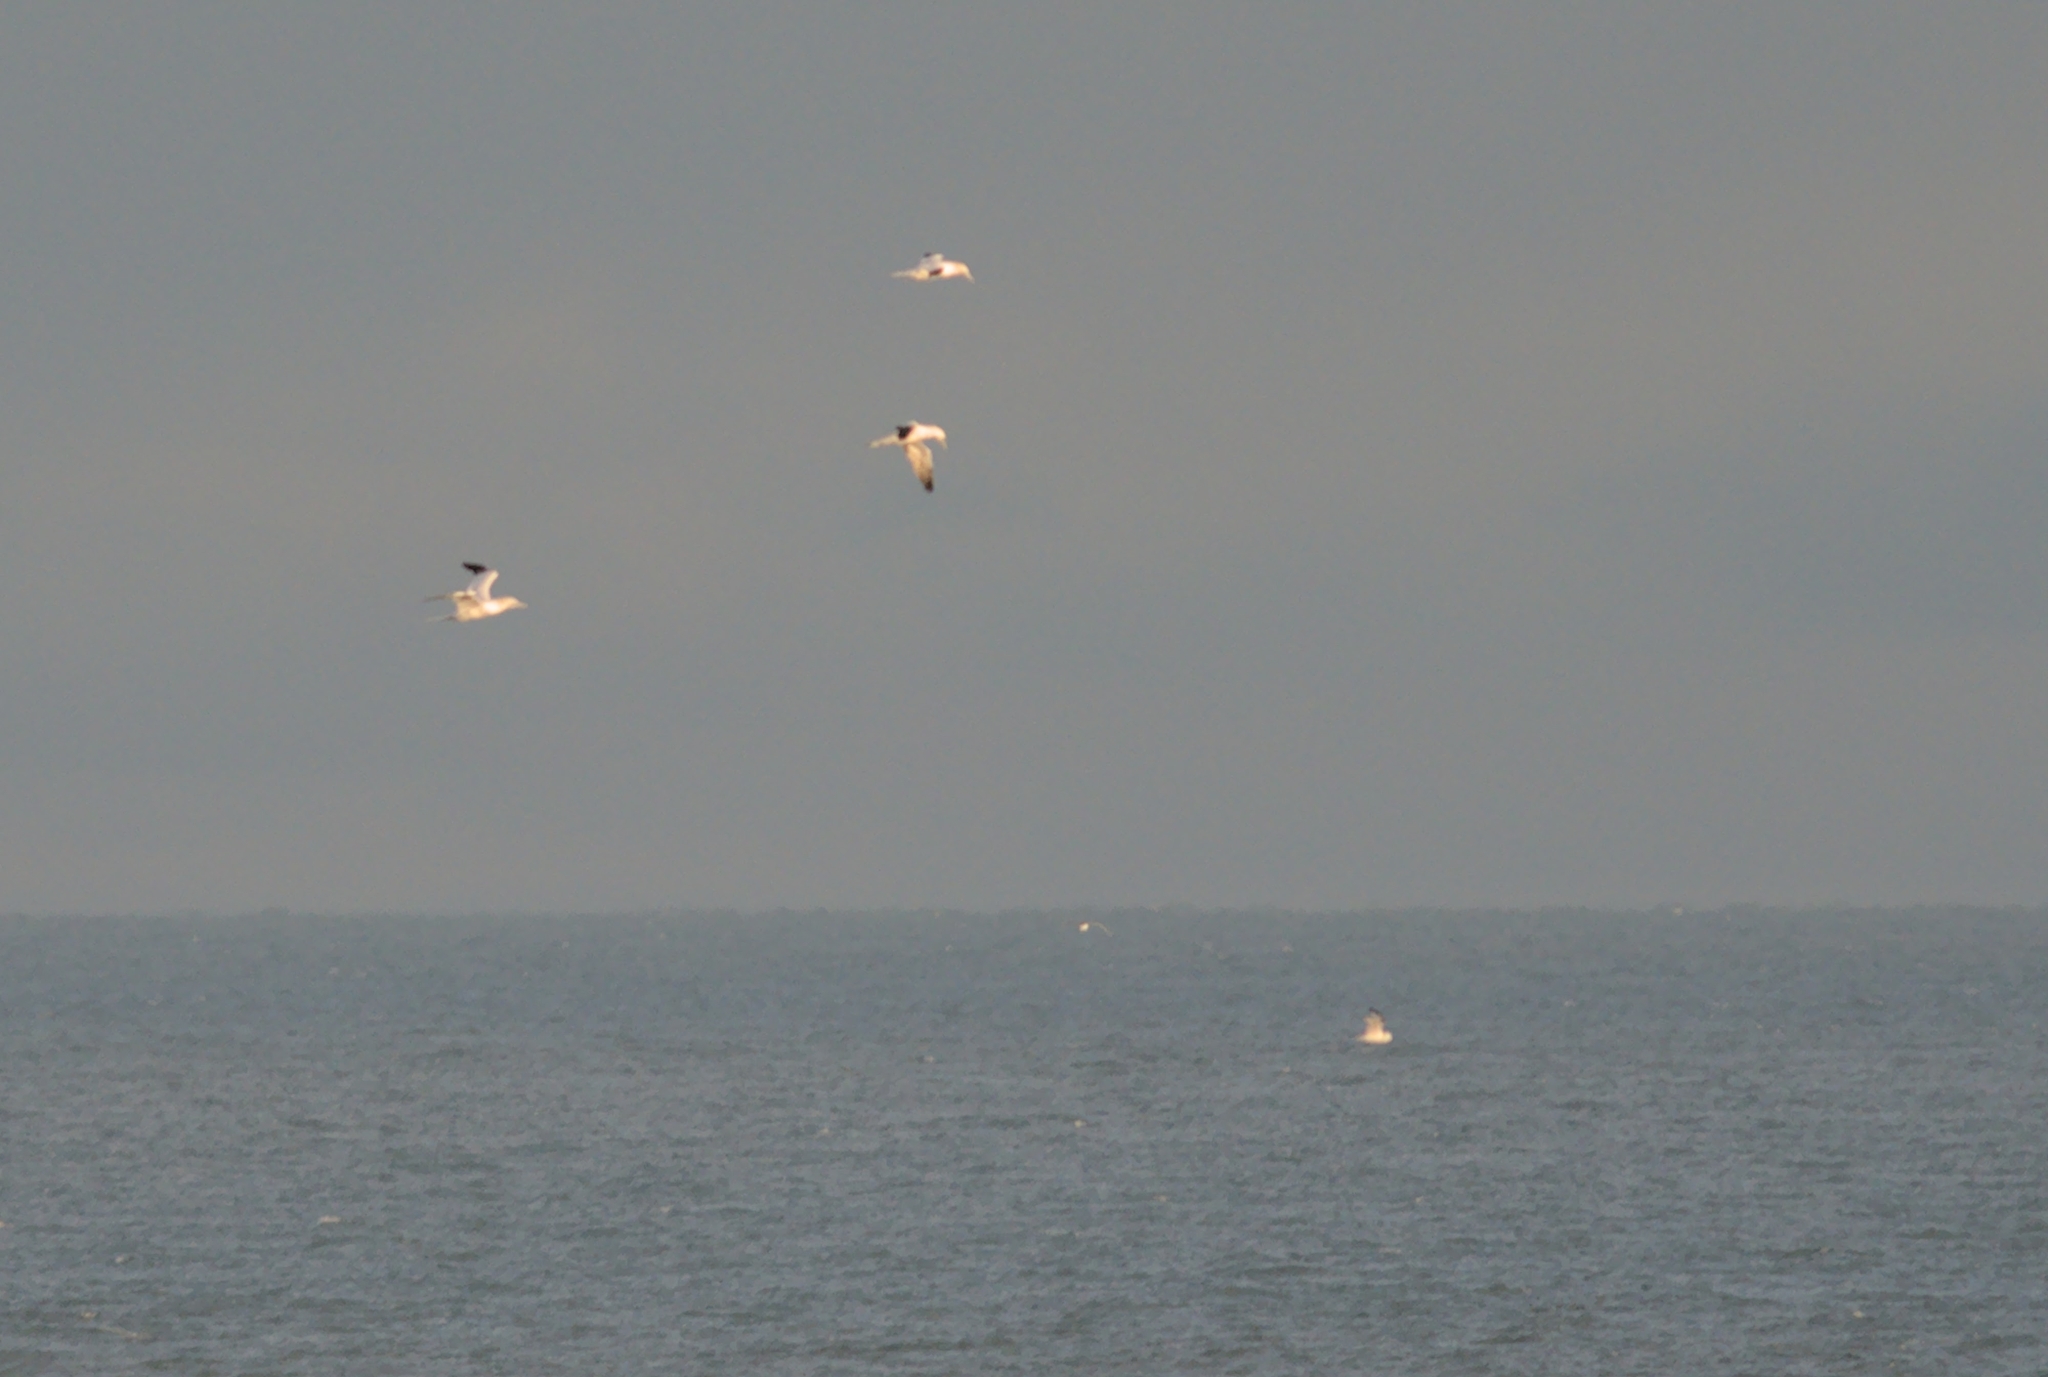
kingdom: Animalia
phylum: Chordata
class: Aves
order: Suliformes
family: Sulidae
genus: Morus
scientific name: Morus bassanus
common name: Northern gannet
